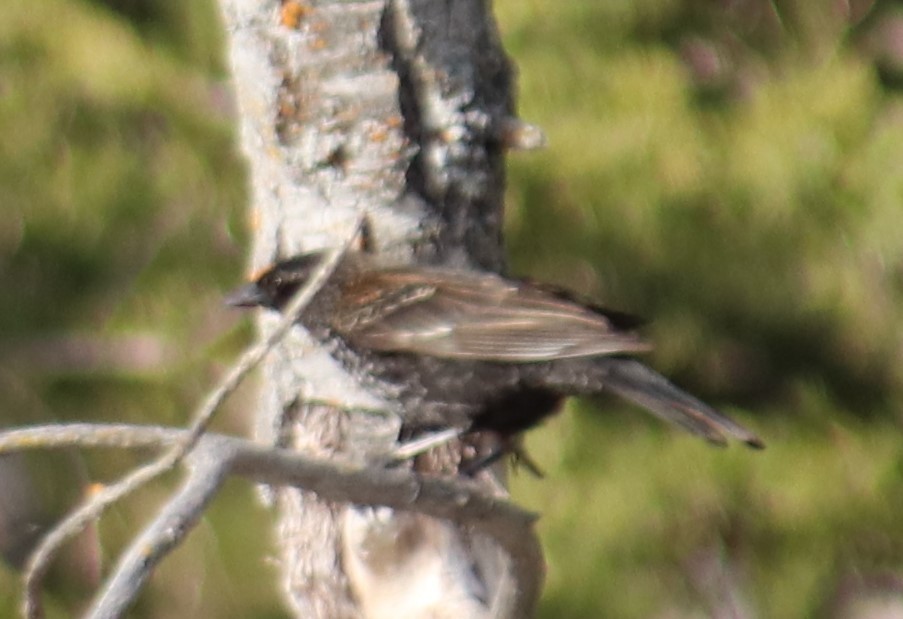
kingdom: Animalia
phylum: Chordata
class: Aves
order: Passeriformes
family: Icteridae
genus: Agelaius
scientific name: Agelaius phoeniceus
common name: Red-winged blackbird
